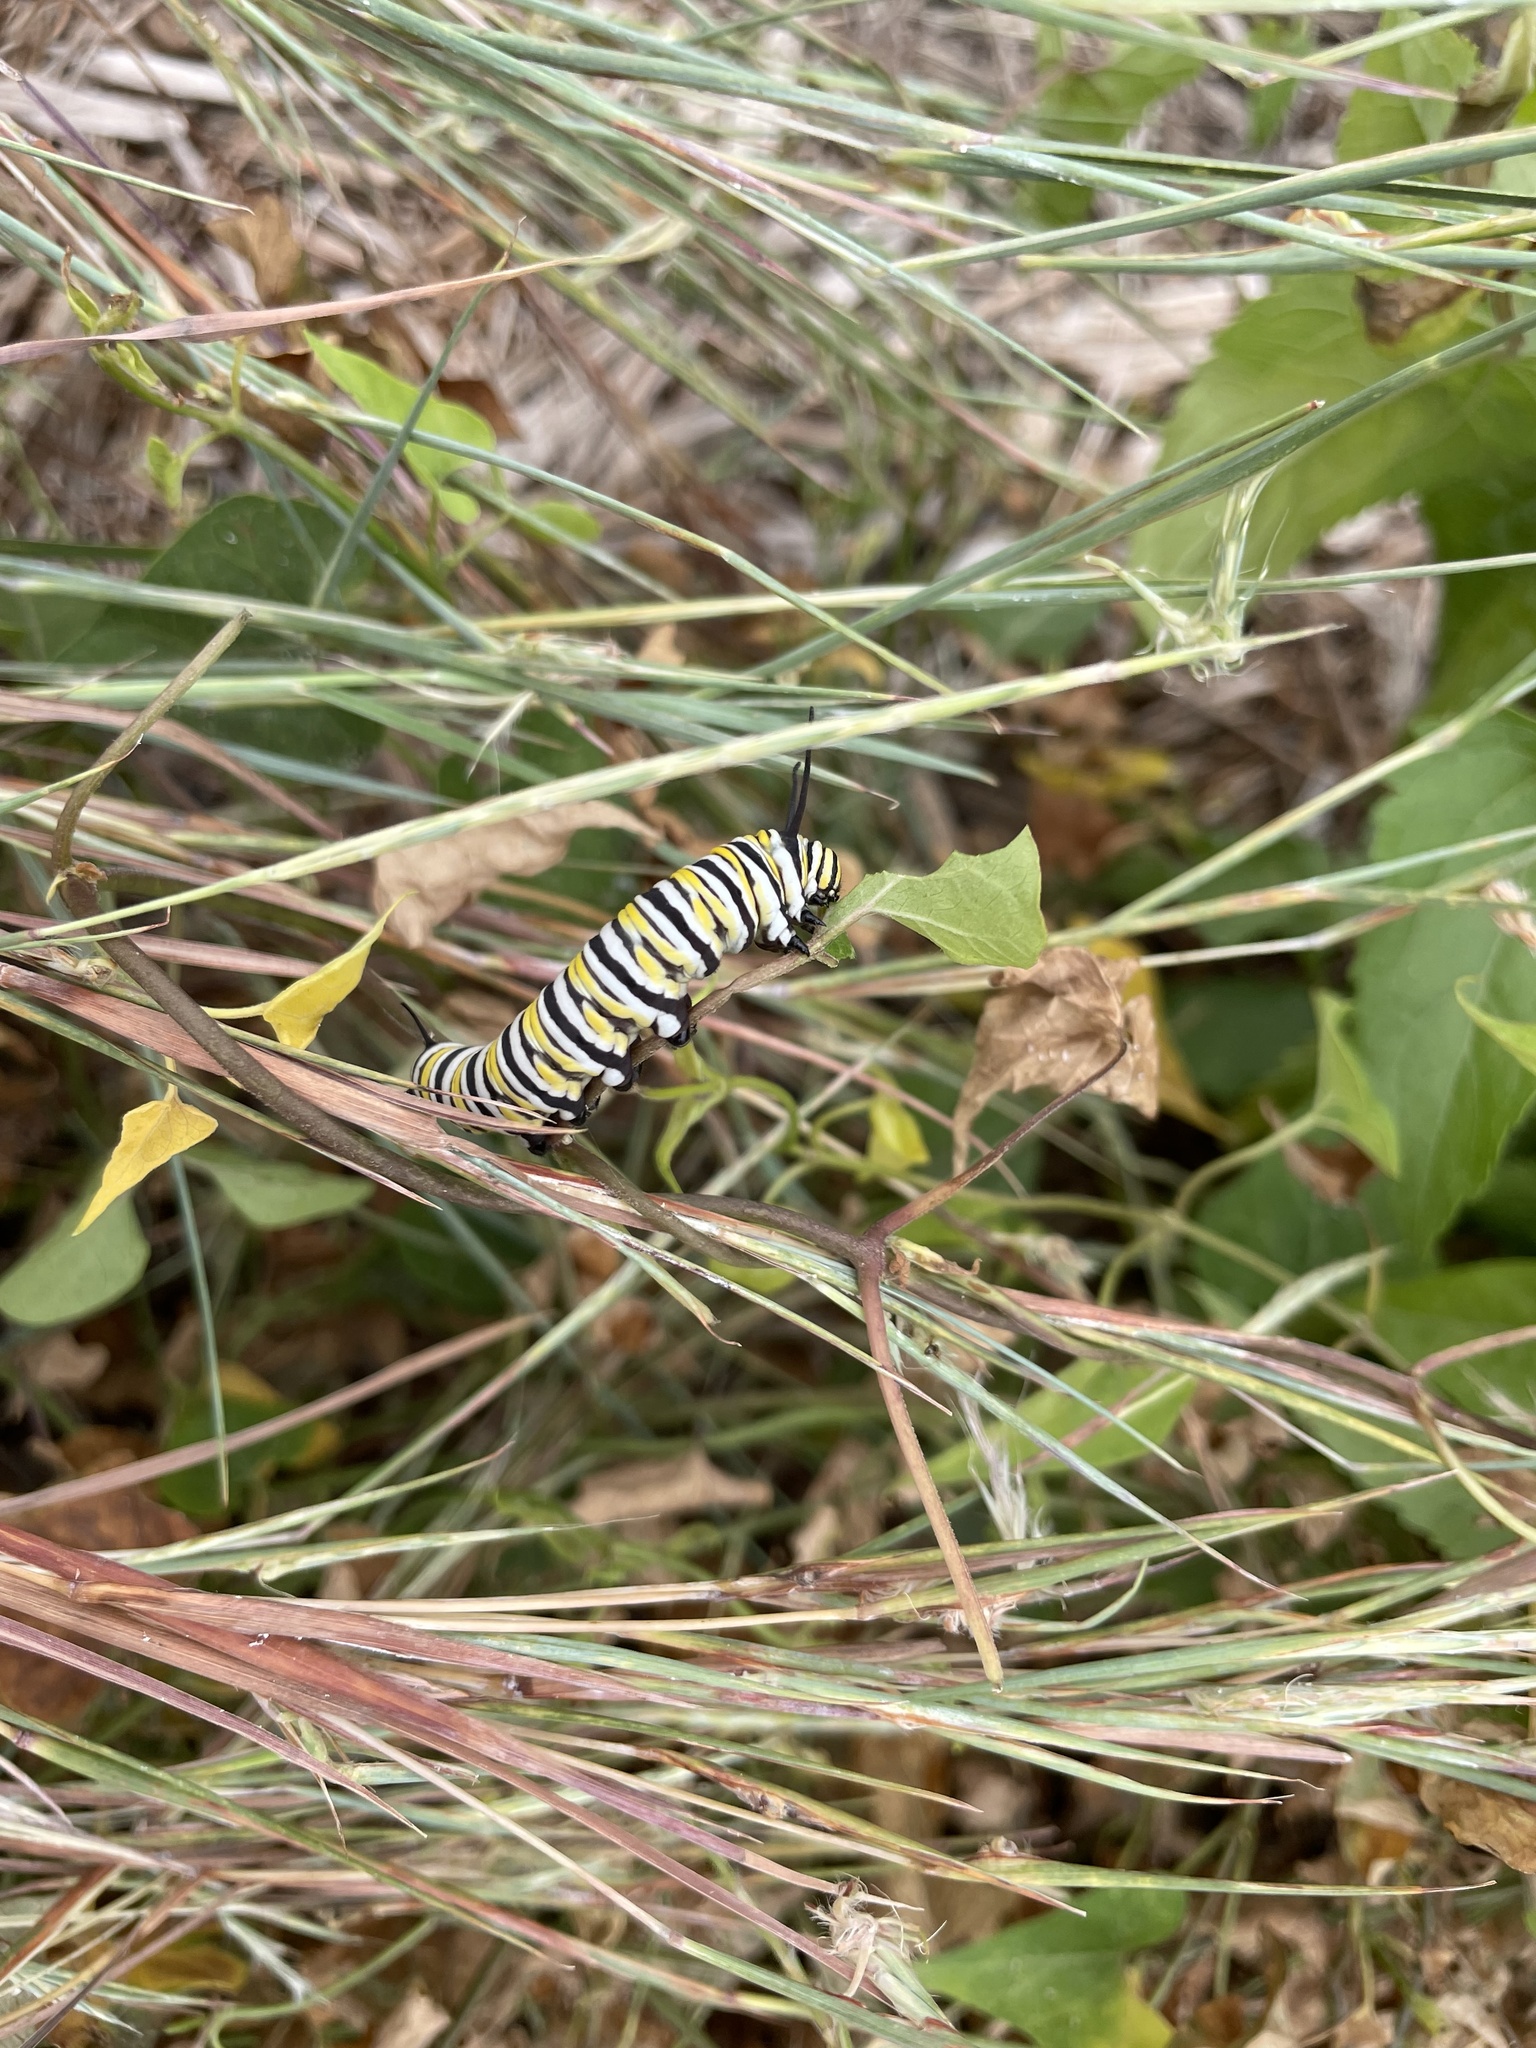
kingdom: Animalia
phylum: Arthropoda
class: Insecta
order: Lepidoptera
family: Nymphalidae
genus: Danaus
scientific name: Danaus plexippus
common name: Monarch
